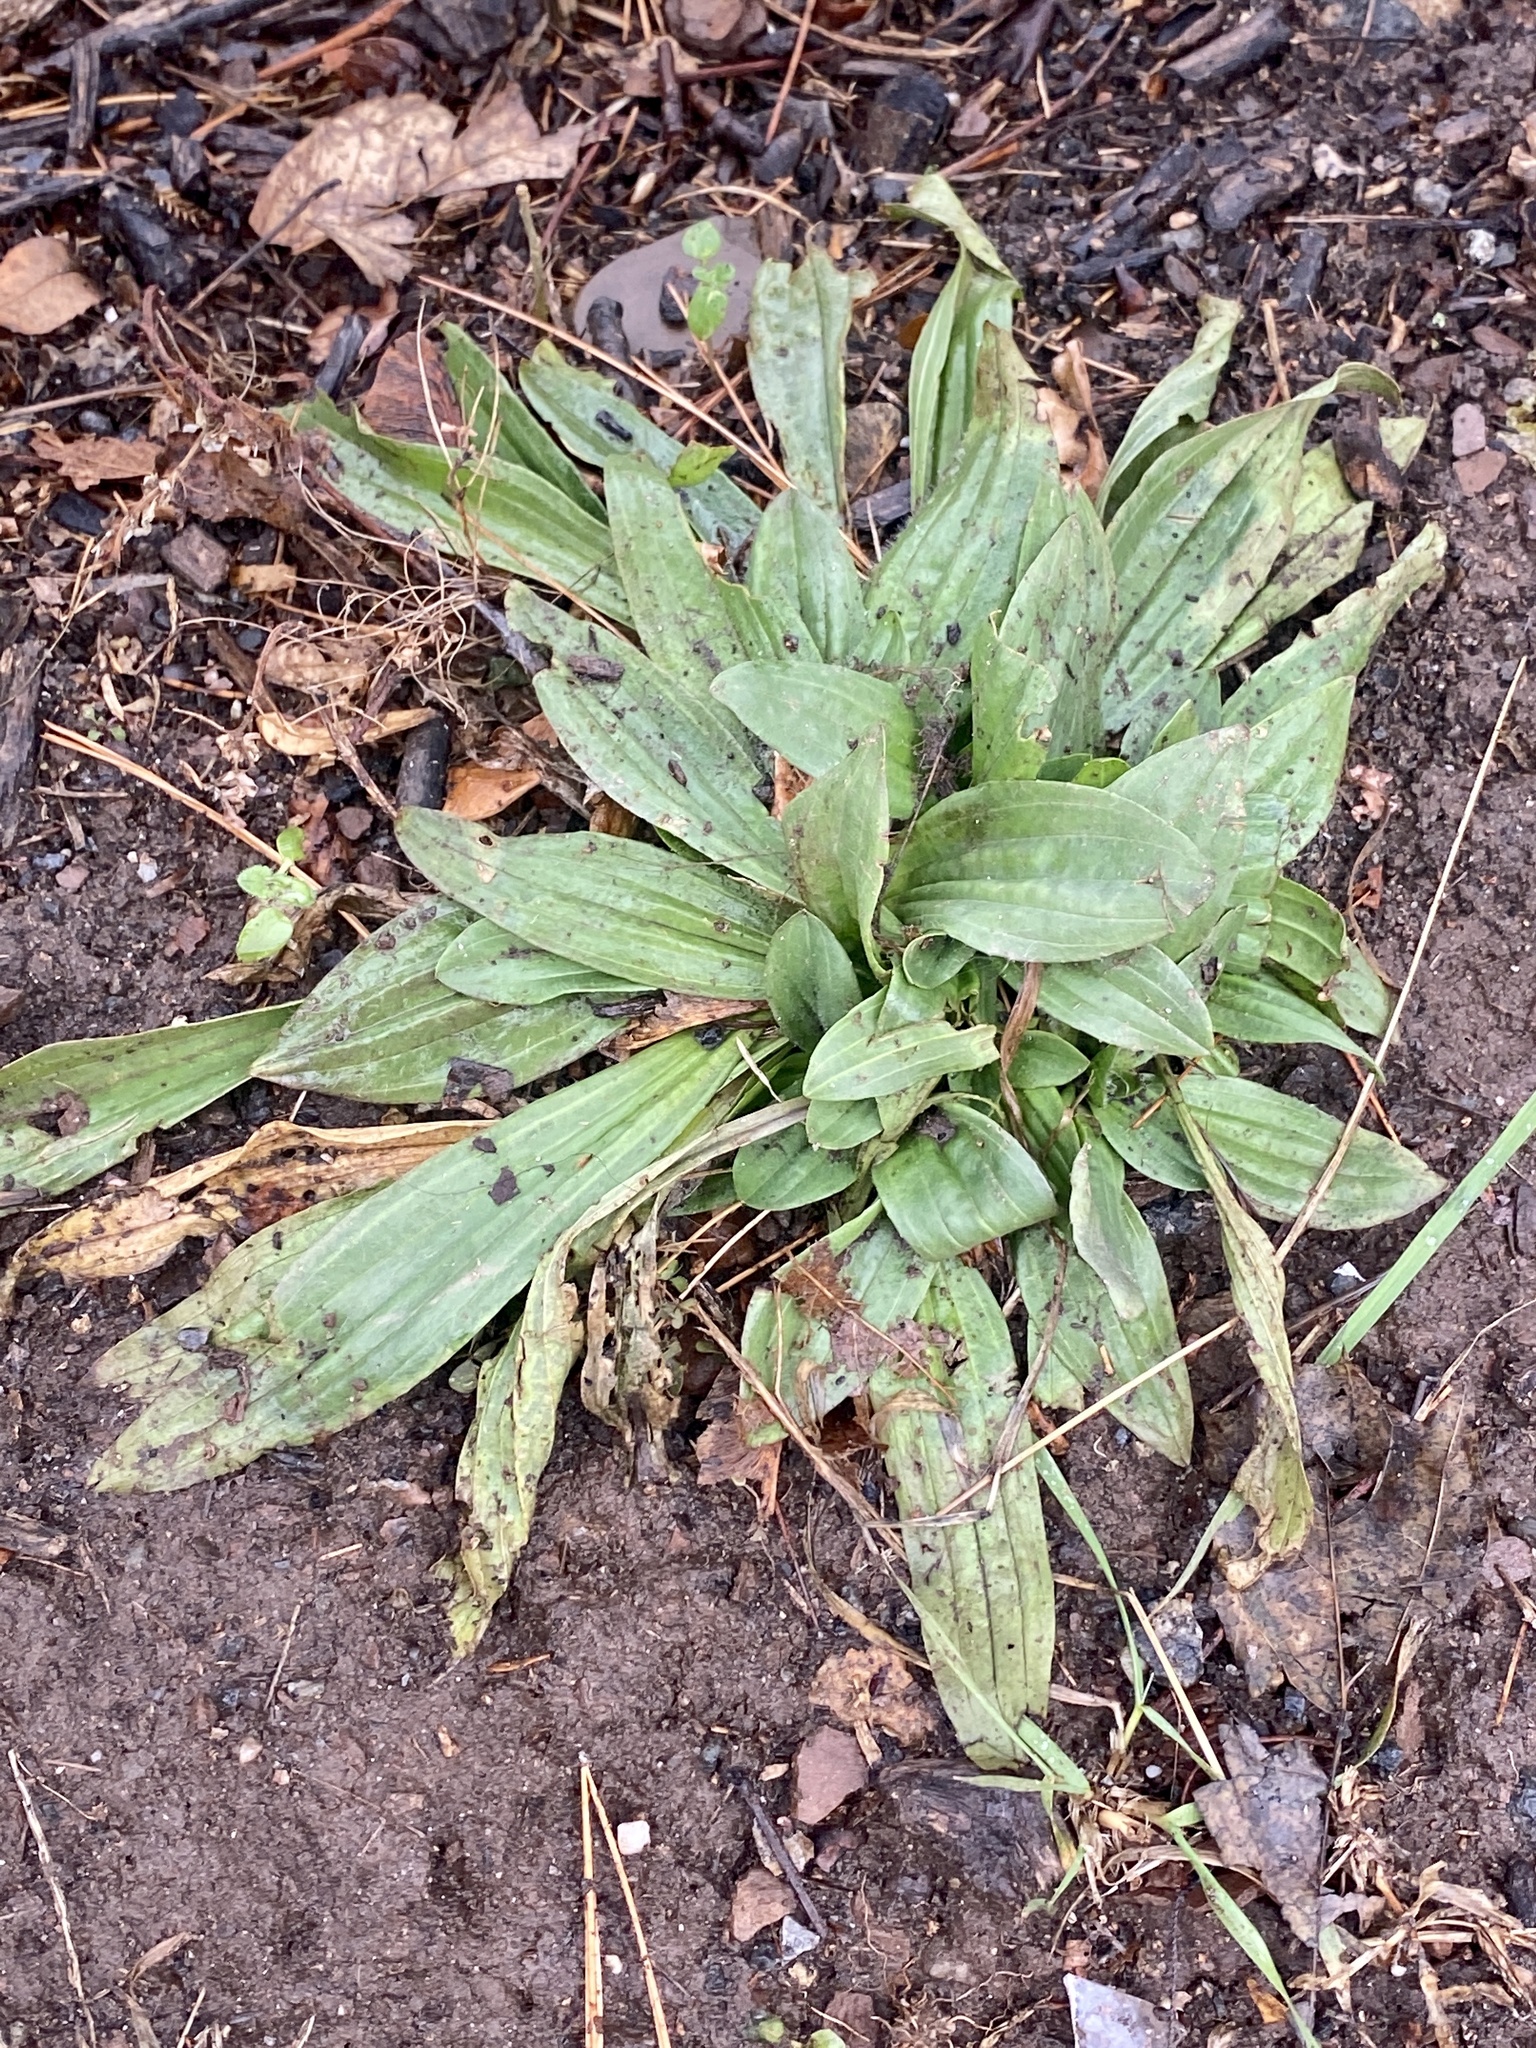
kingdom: Plantae
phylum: Tracheophyta
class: Magnoliopsida
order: Lamiales
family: Plantaginaceae
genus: Plantago
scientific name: Plantago lanceolata
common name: Ribwort plantain
